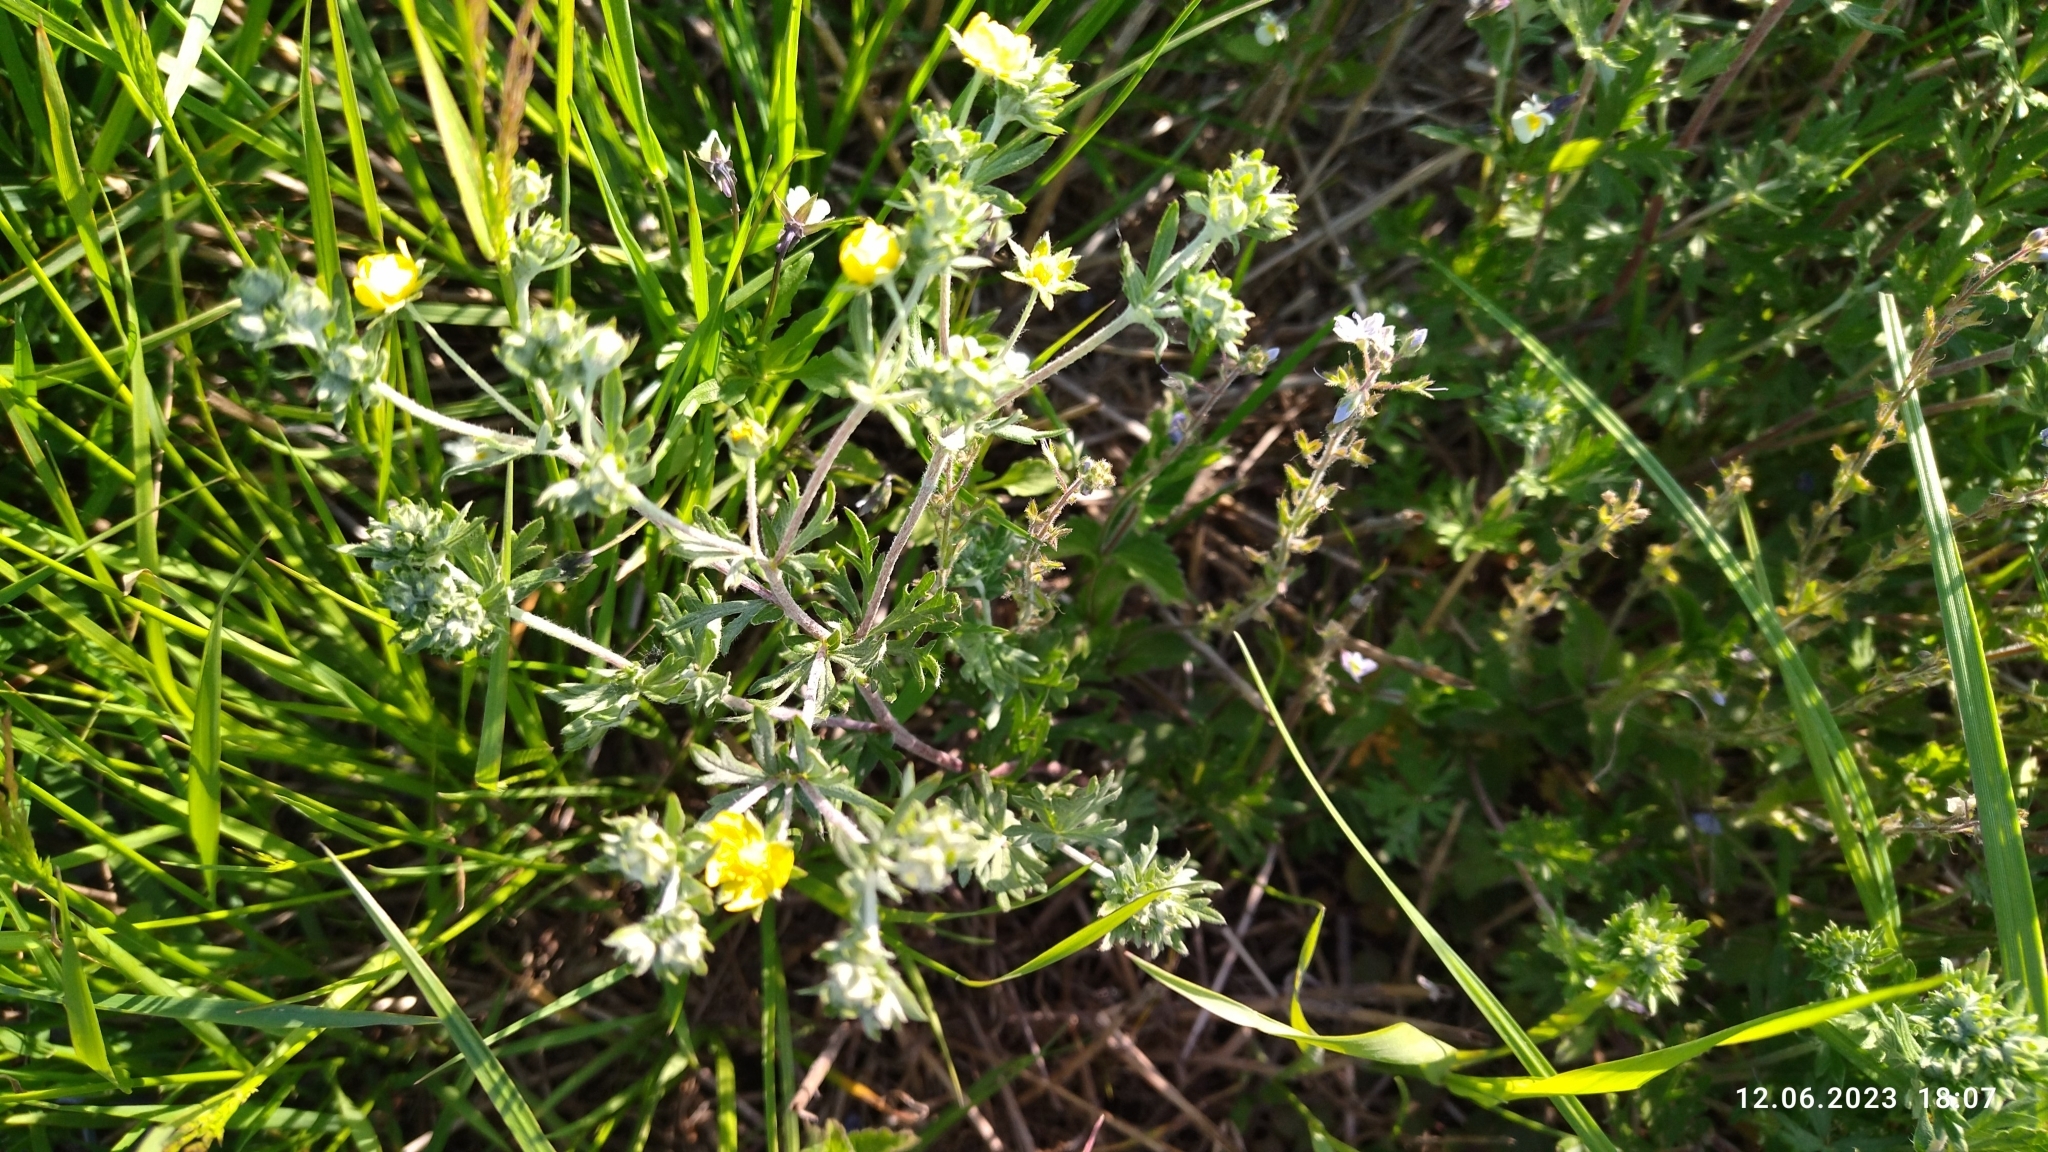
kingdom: Plantae
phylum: Tracheophyta
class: Magnoliopsida
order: Rosales
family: Rosaceae
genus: Potentilla
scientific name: Potentilla argentea
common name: Hoary cinquefoil
